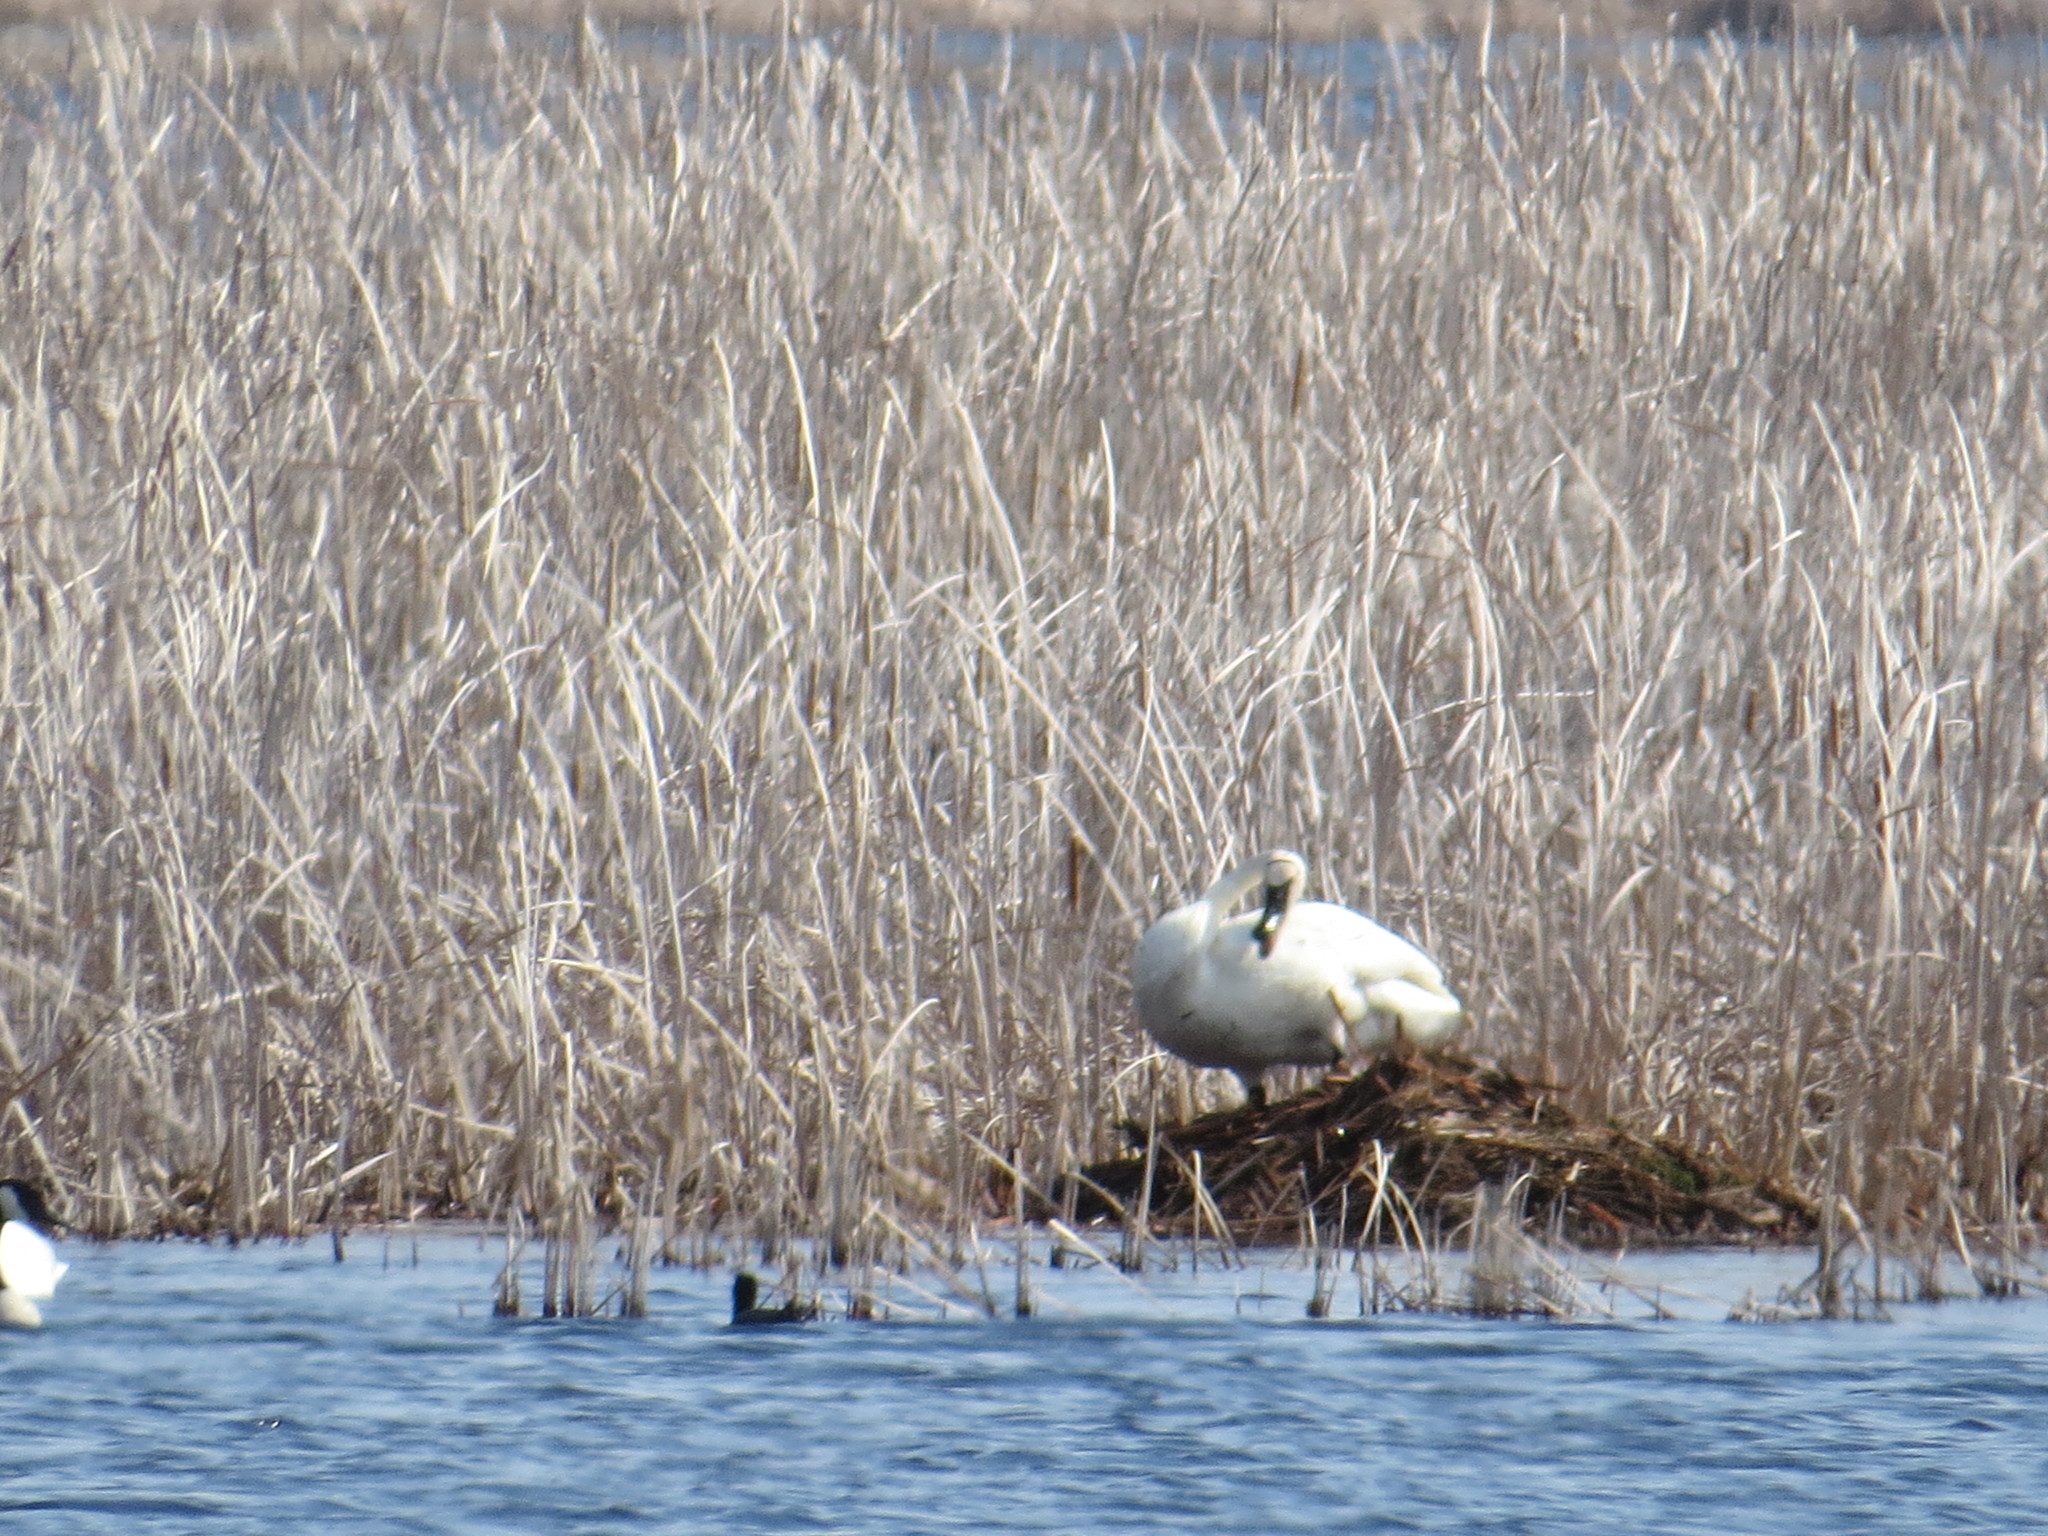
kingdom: Animalia
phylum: Chordata
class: Aves
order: Anseriformes
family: Anatidae
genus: Cygnus
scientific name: Cygnus buccinator
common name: Trumpeter swan
